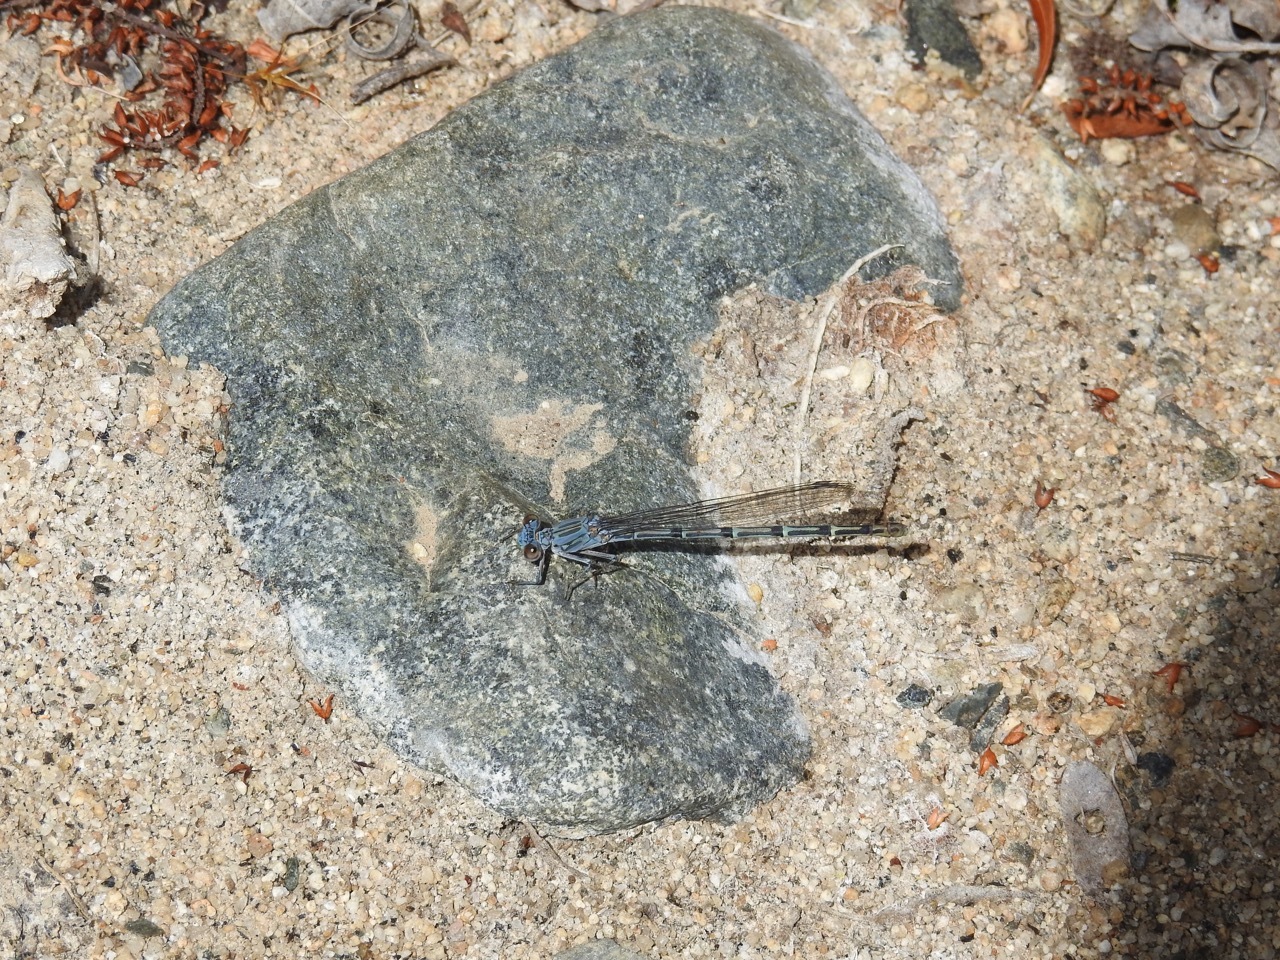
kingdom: Animalia
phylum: Arthropoda
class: Insecta
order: Odonata
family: Coenagrionidae
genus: Argia
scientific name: Argia lugens
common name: Sooty dancer
